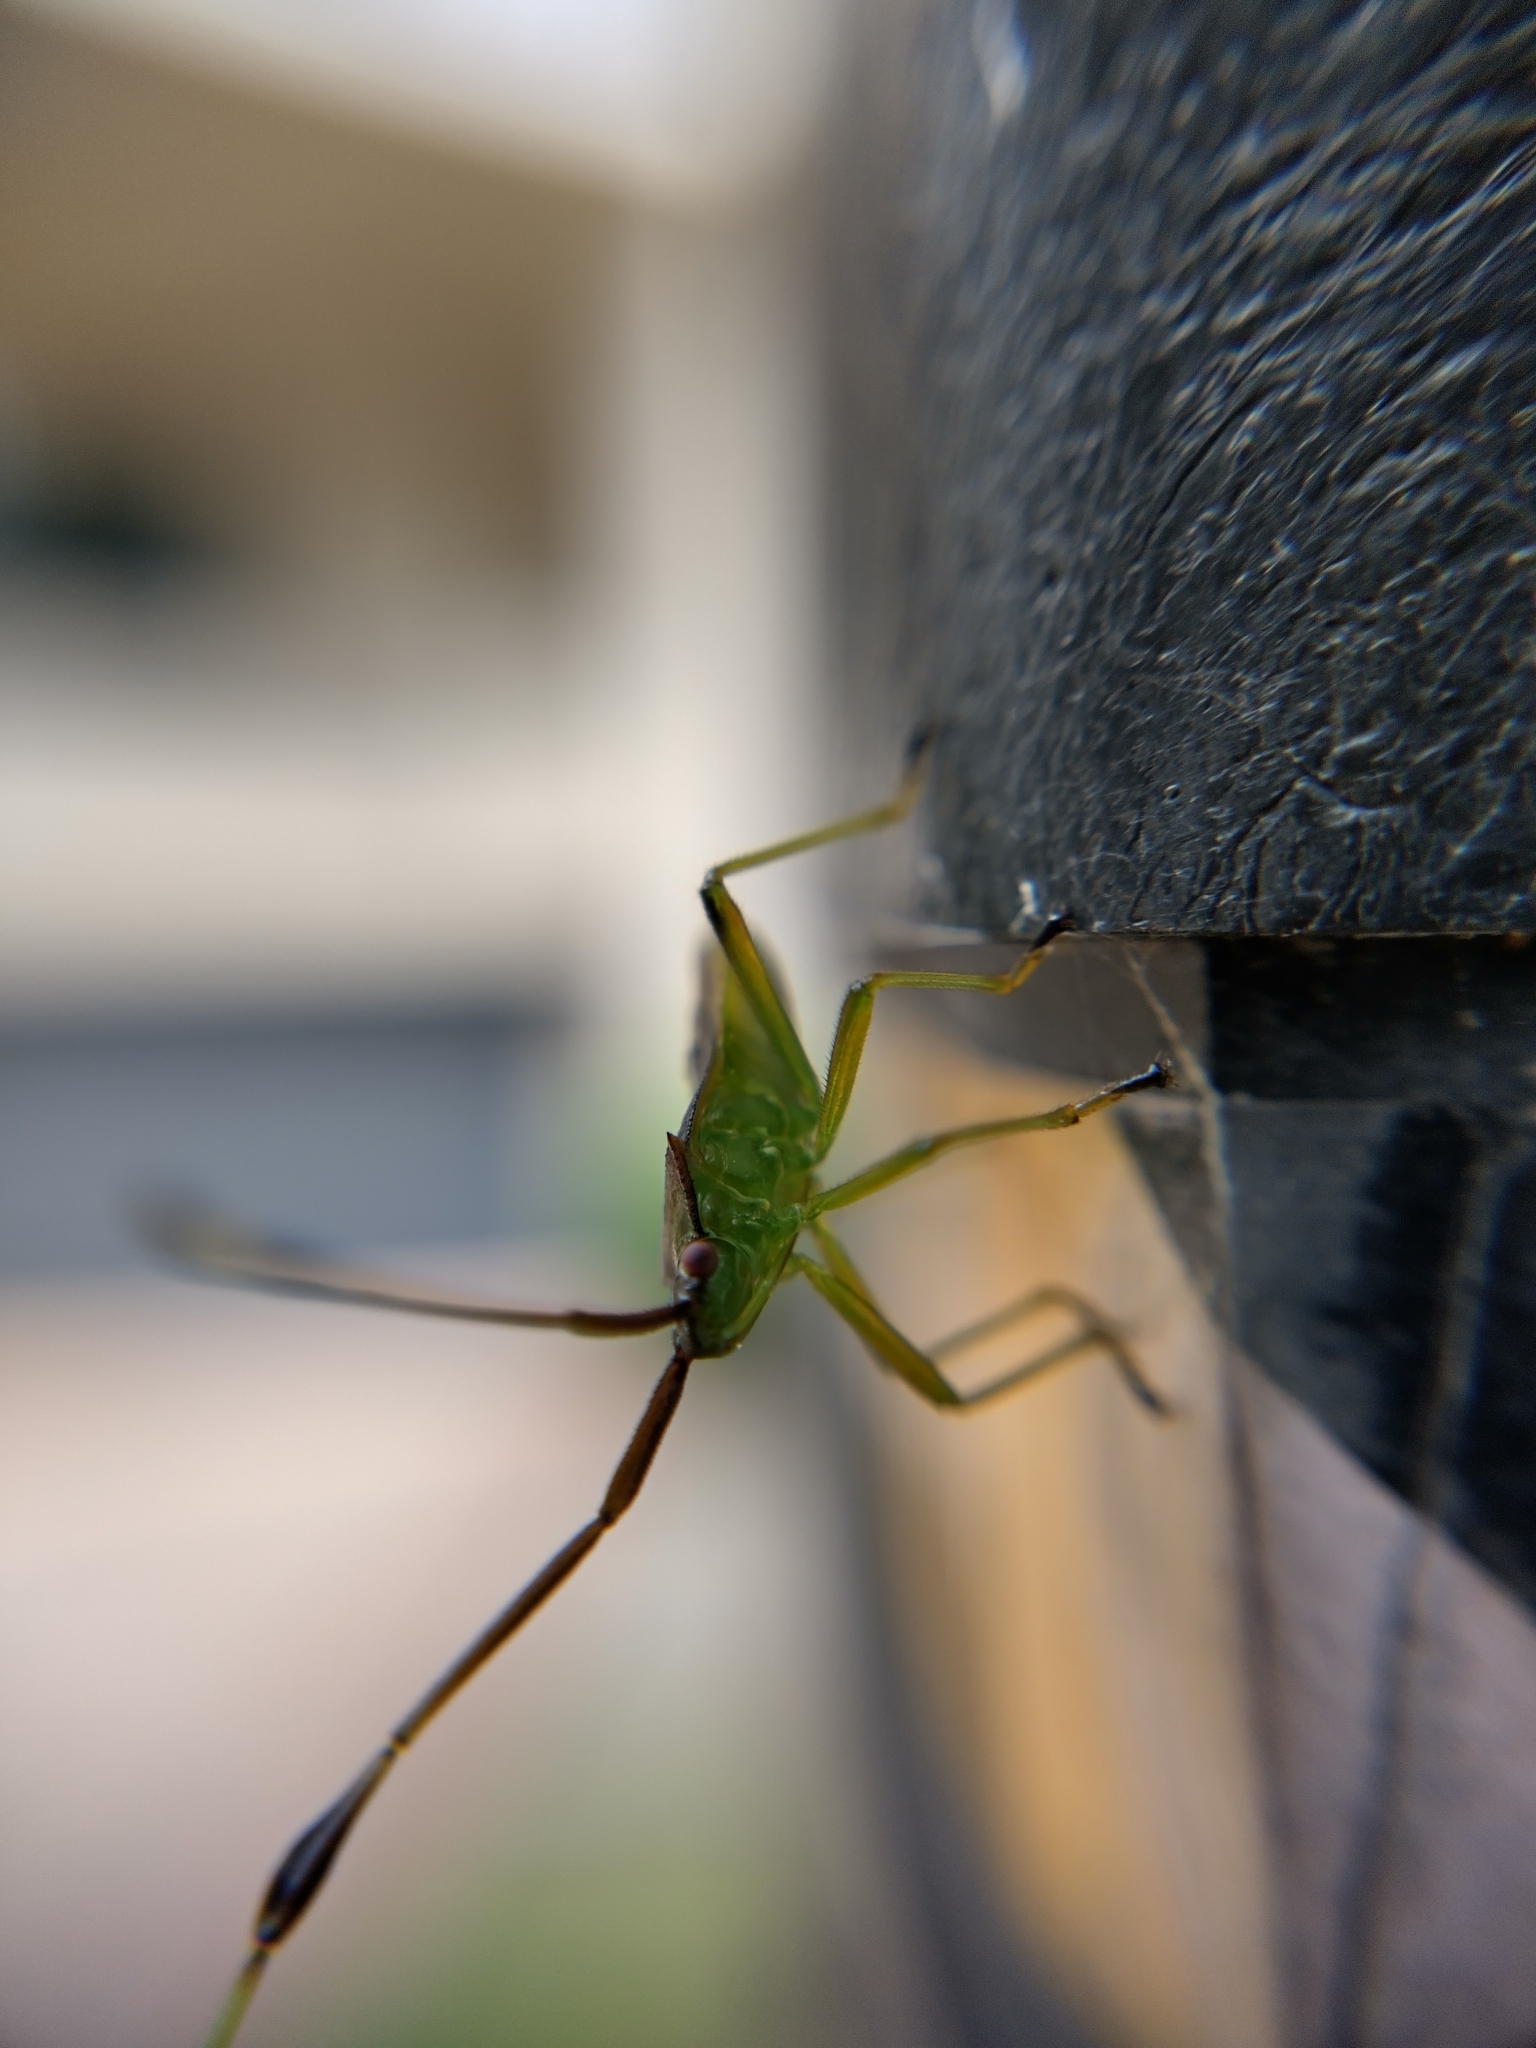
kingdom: Animalia
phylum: Arthropoda
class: Insecta
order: Hemiptera
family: Coreidae
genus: Amblypelta
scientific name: Amblypelta nitida
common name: Fruitspotting bug
